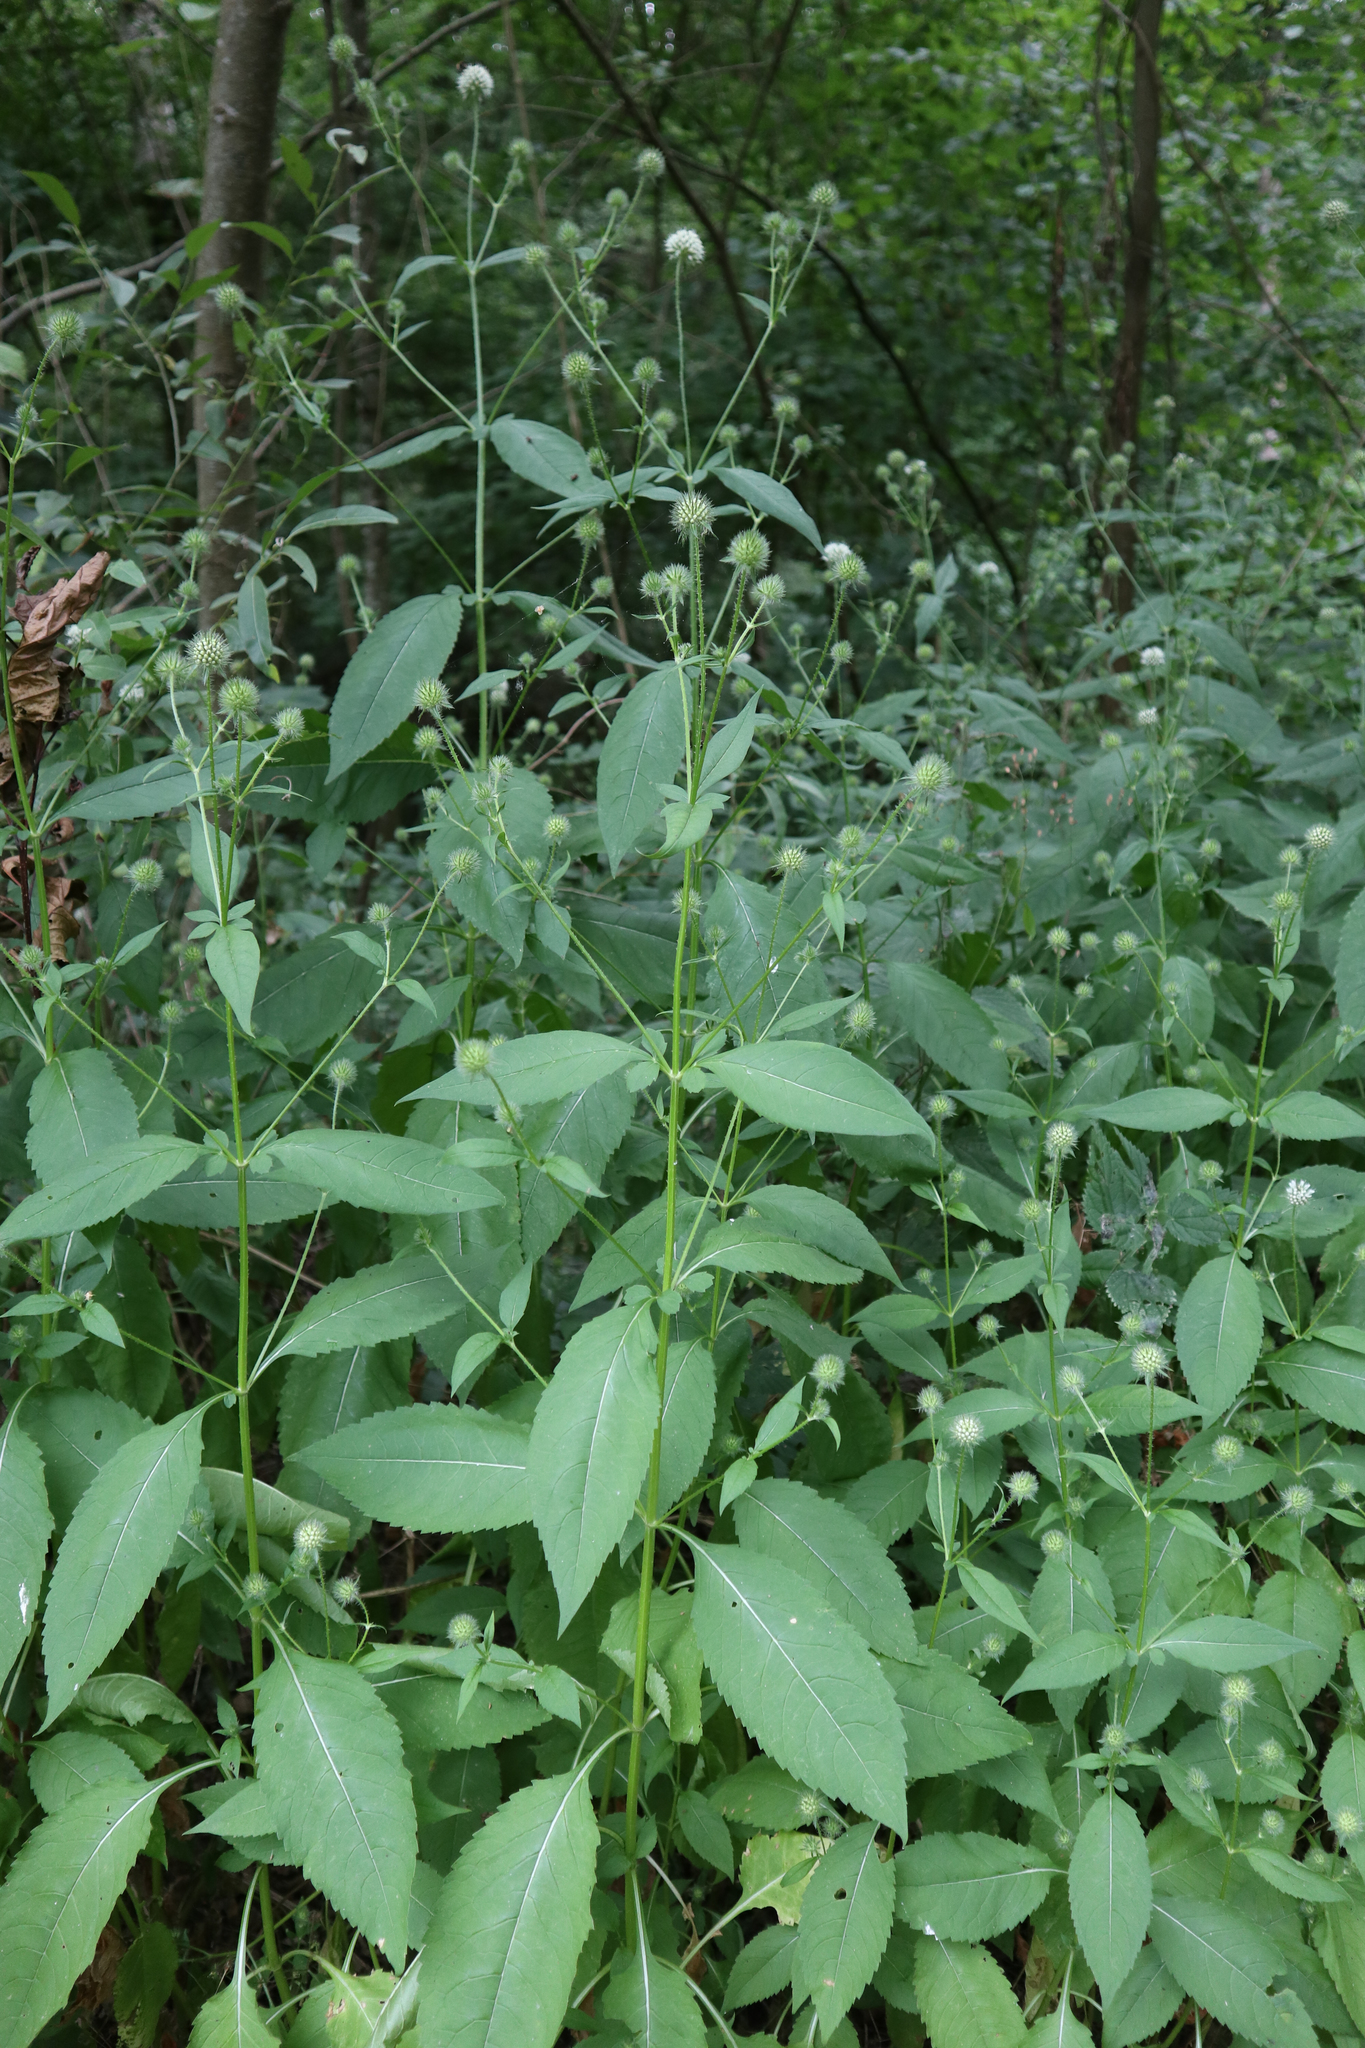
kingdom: Plantae
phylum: Tracheophyta
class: Magnoliopsida
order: Dipsacales
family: Caprifoliaceae
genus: Dipsacus
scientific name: Dipsacus pilosus
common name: Small teasel
